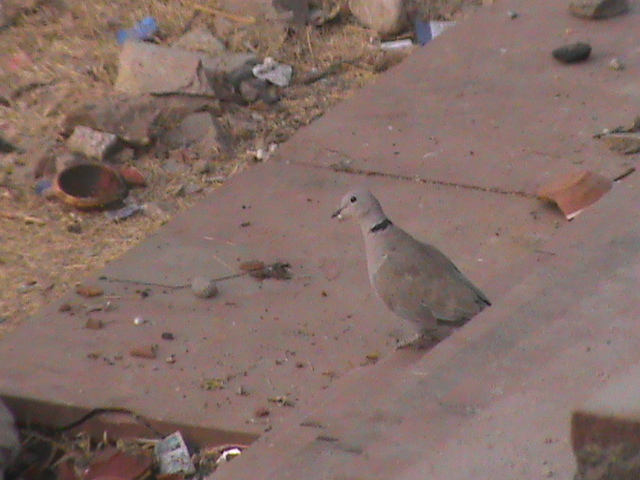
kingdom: Animalia
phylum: Chordata
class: Aves
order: Columbiformes
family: Columbidae
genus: Streptopelia
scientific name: Streptopelia decaocto
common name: Eurasian collared dove
